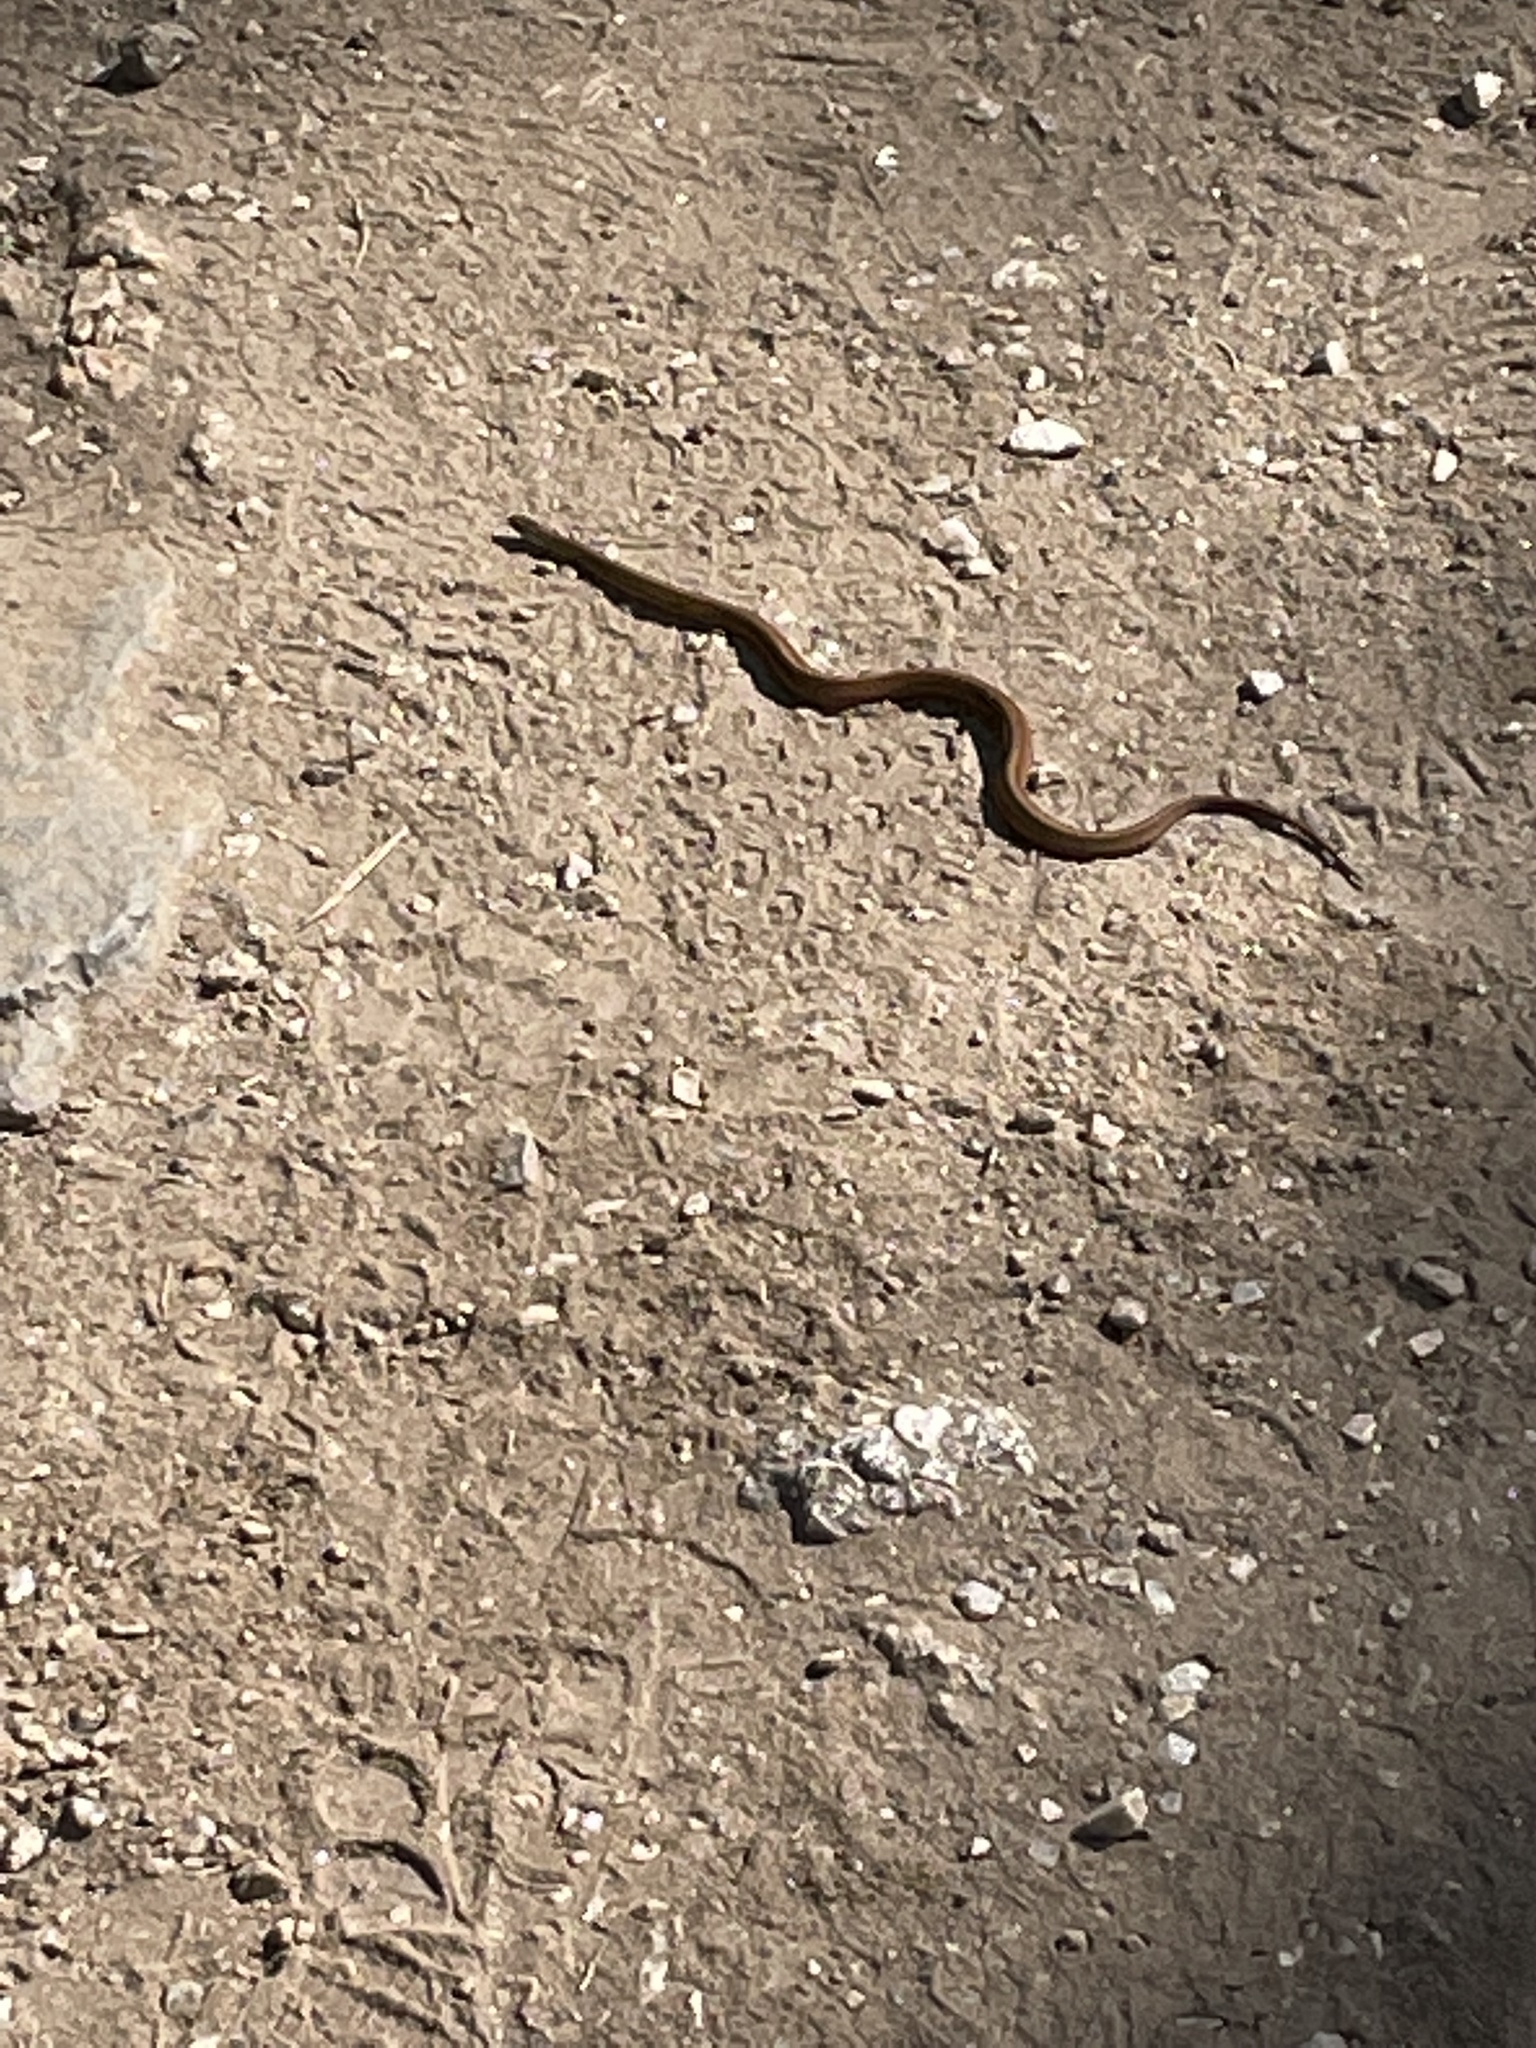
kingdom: Animalia
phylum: Chordata
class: Squamata
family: Colubridae
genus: Storeria
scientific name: Storeria occipitomaculata
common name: Redbelly snake
